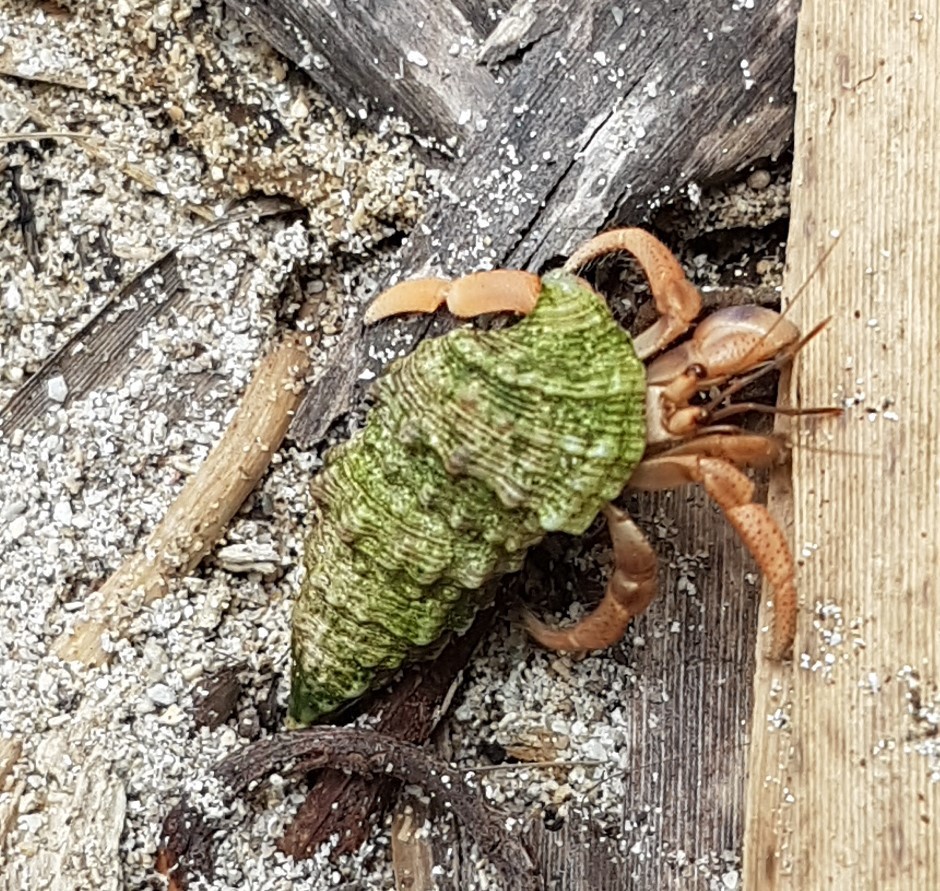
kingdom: Animalia
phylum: Arthropoda
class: Malacostraca
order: Decapoda
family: Coenobitidae
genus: Coenobita
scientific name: Coenobita clypeatus
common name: Caribbean hermit crab
